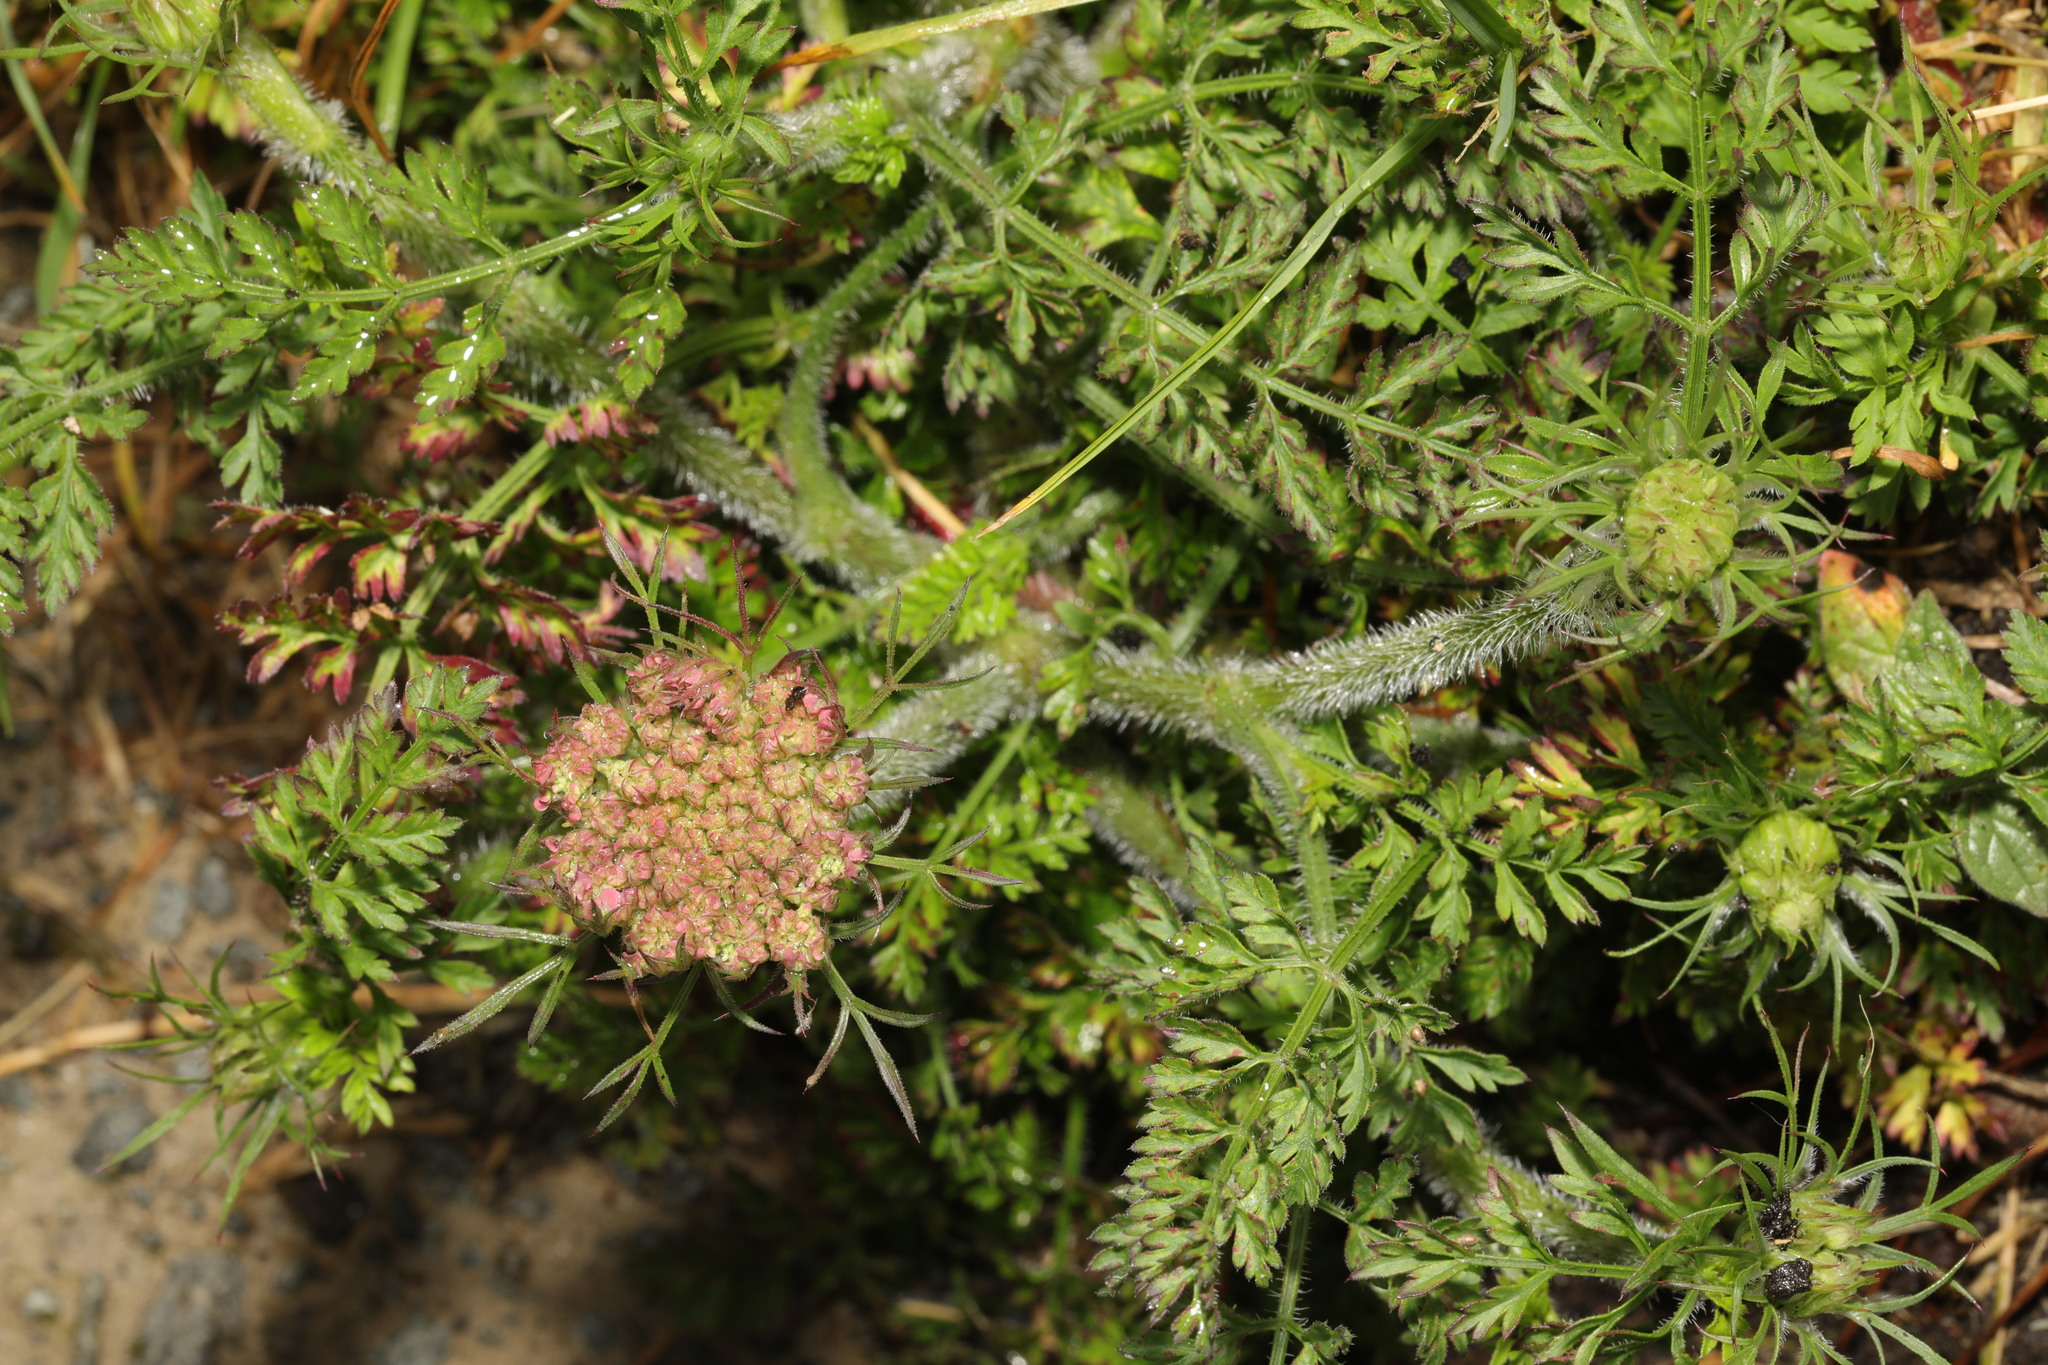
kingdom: Plantae
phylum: Tracheophyta
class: Magnoliopsida
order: Apiales
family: Apiaceae
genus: Daucus
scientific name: Daucus carota
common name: Wild carrot
